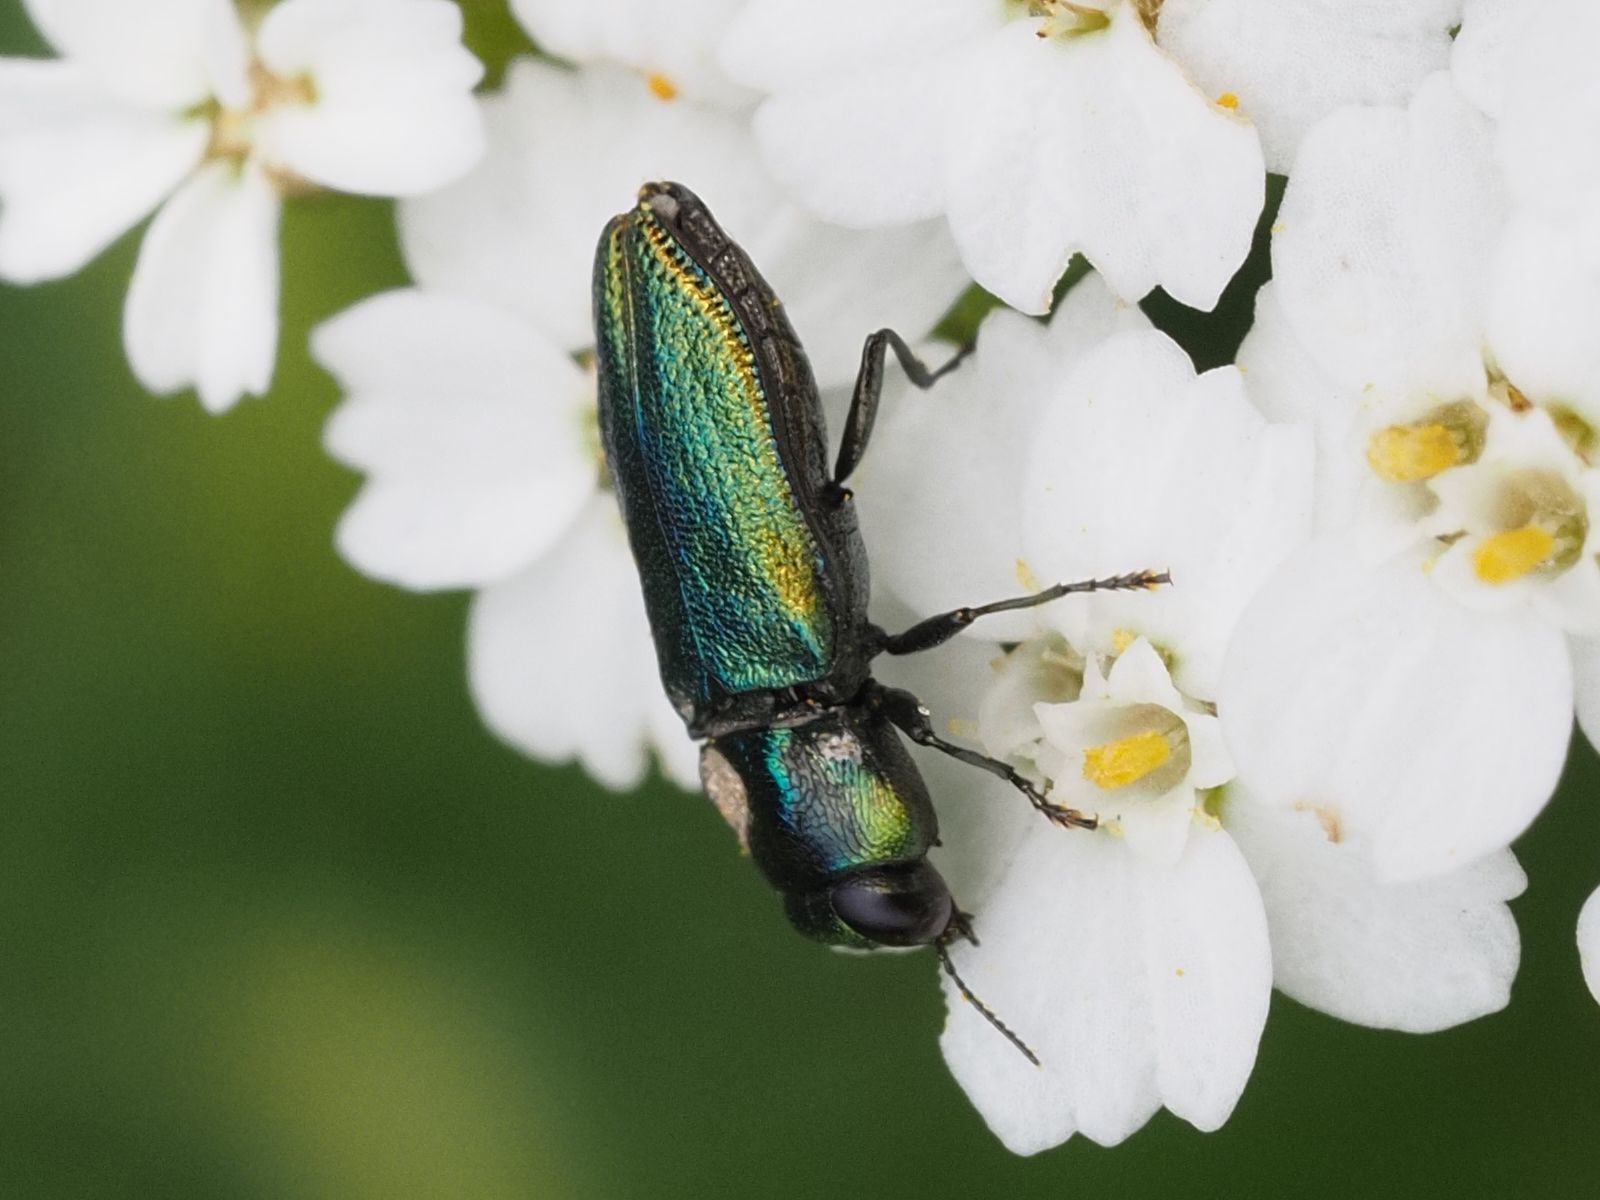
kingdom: Animalia
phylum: Arthropoda
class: Insecta
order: Coleoptera
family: Buprestidae
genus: Anthaxia
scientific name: Anthaxia fulgurans
